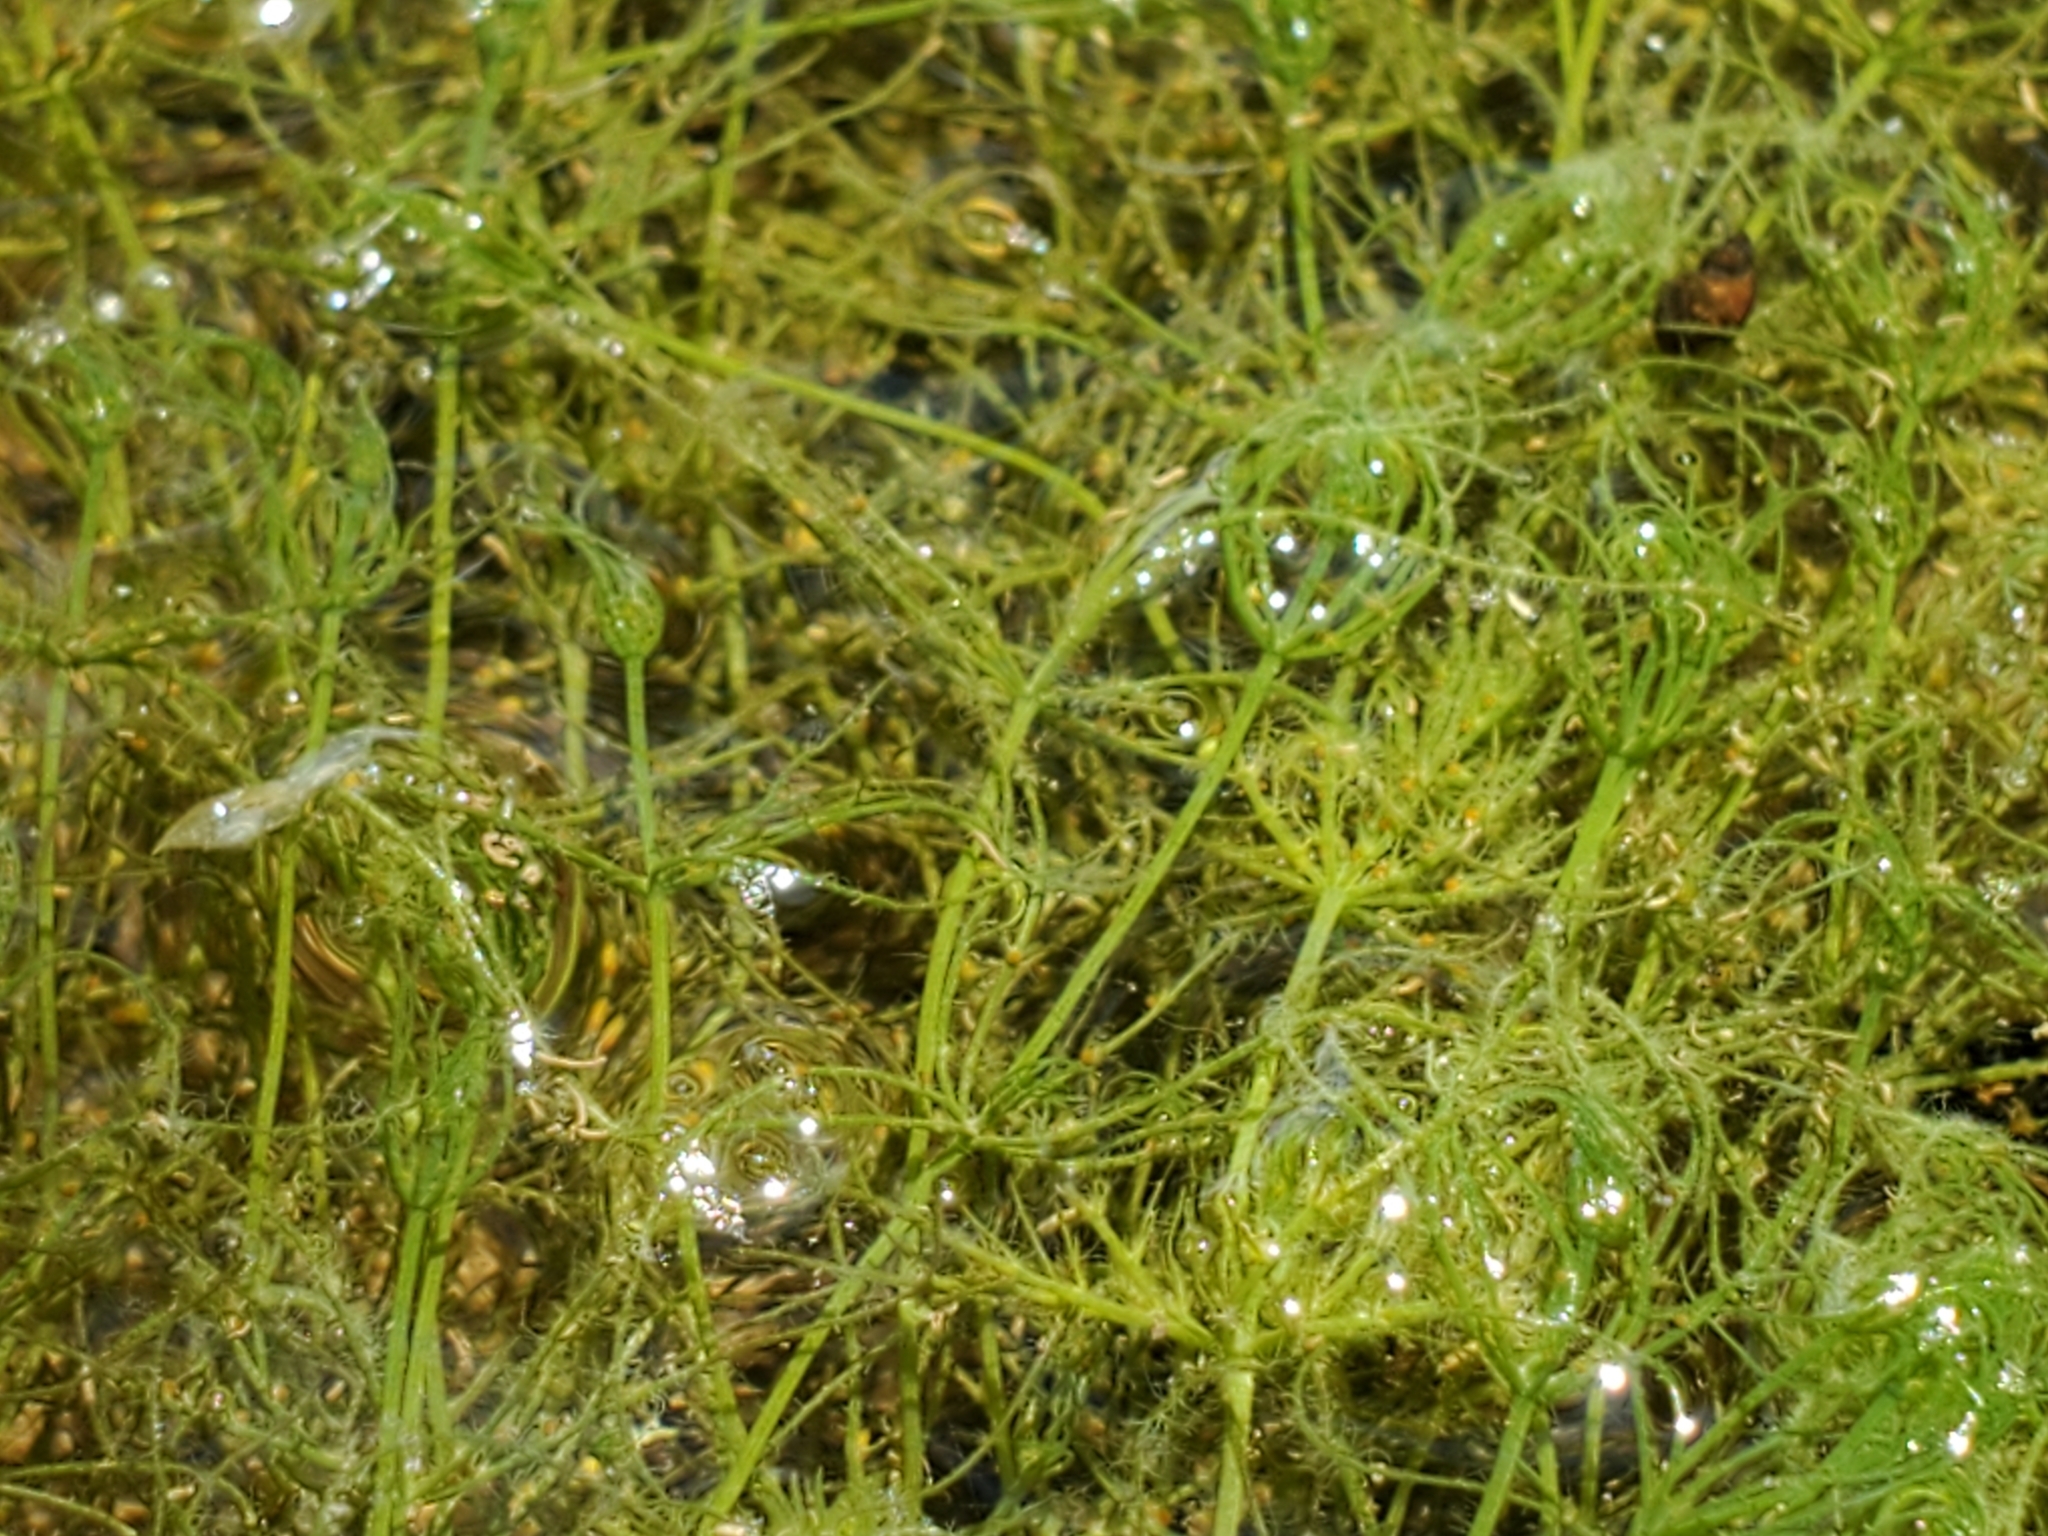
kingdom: Plantae
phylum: Charophyta
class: Charophyceae
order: Charales
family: Characeae
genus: Chara
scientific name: Chara
